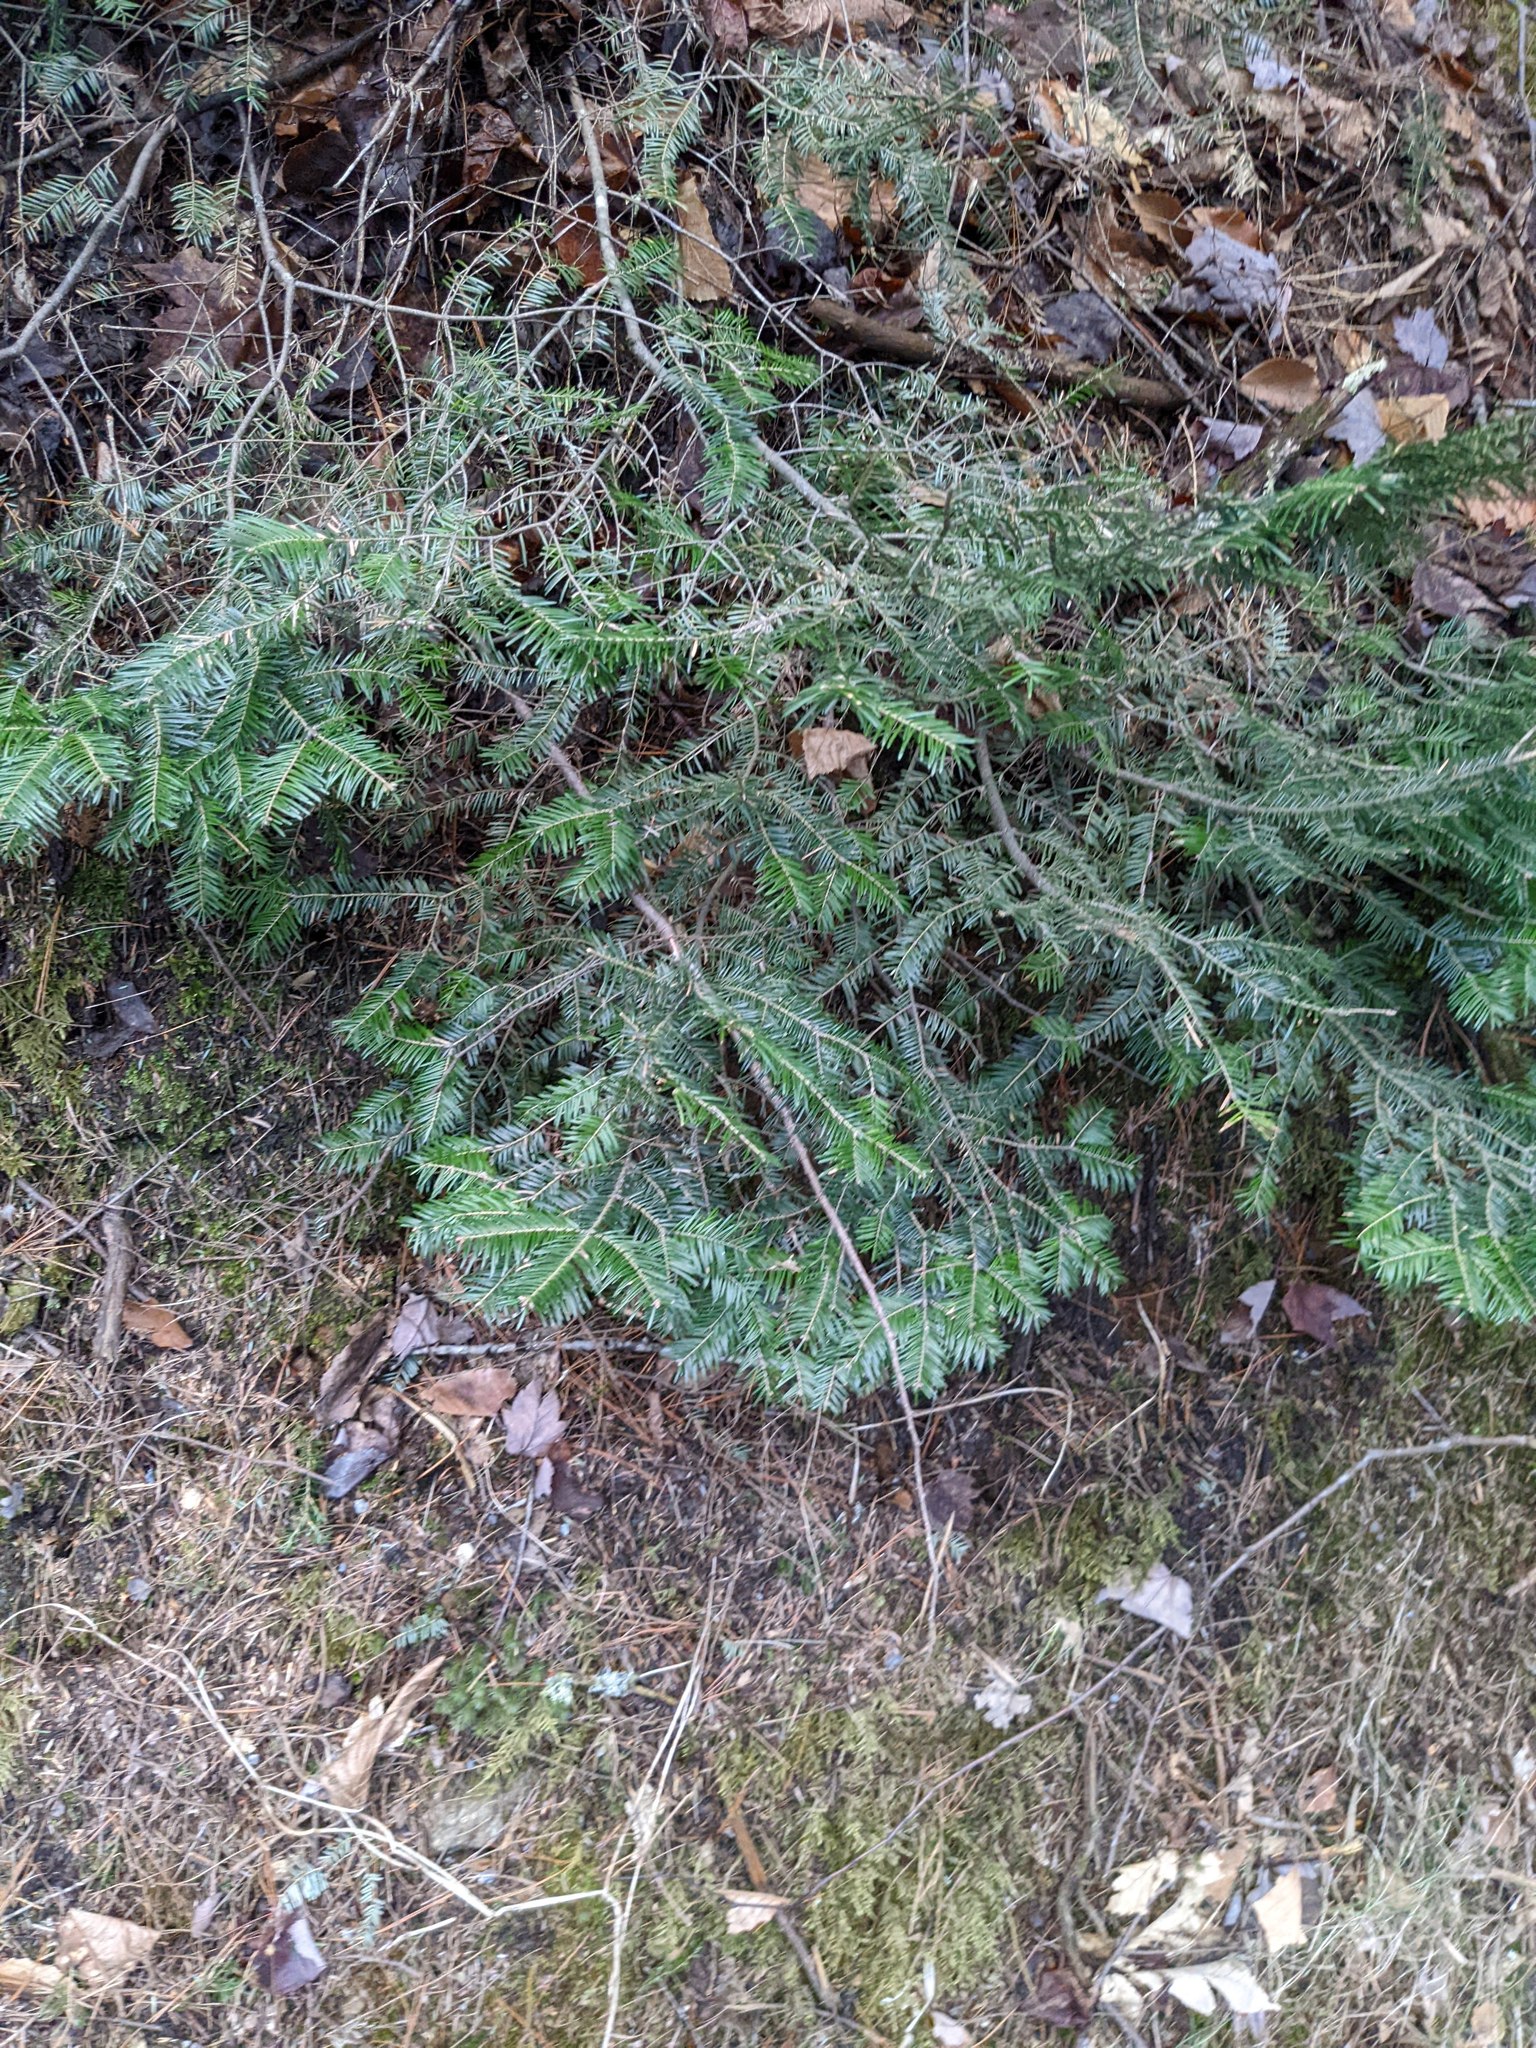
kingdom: Plantae
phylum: Tracheophyta
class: Pinopsida
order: Pinales
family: Pinaceae
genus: Abies
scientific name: Abies balsamea
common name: Balsam fir
